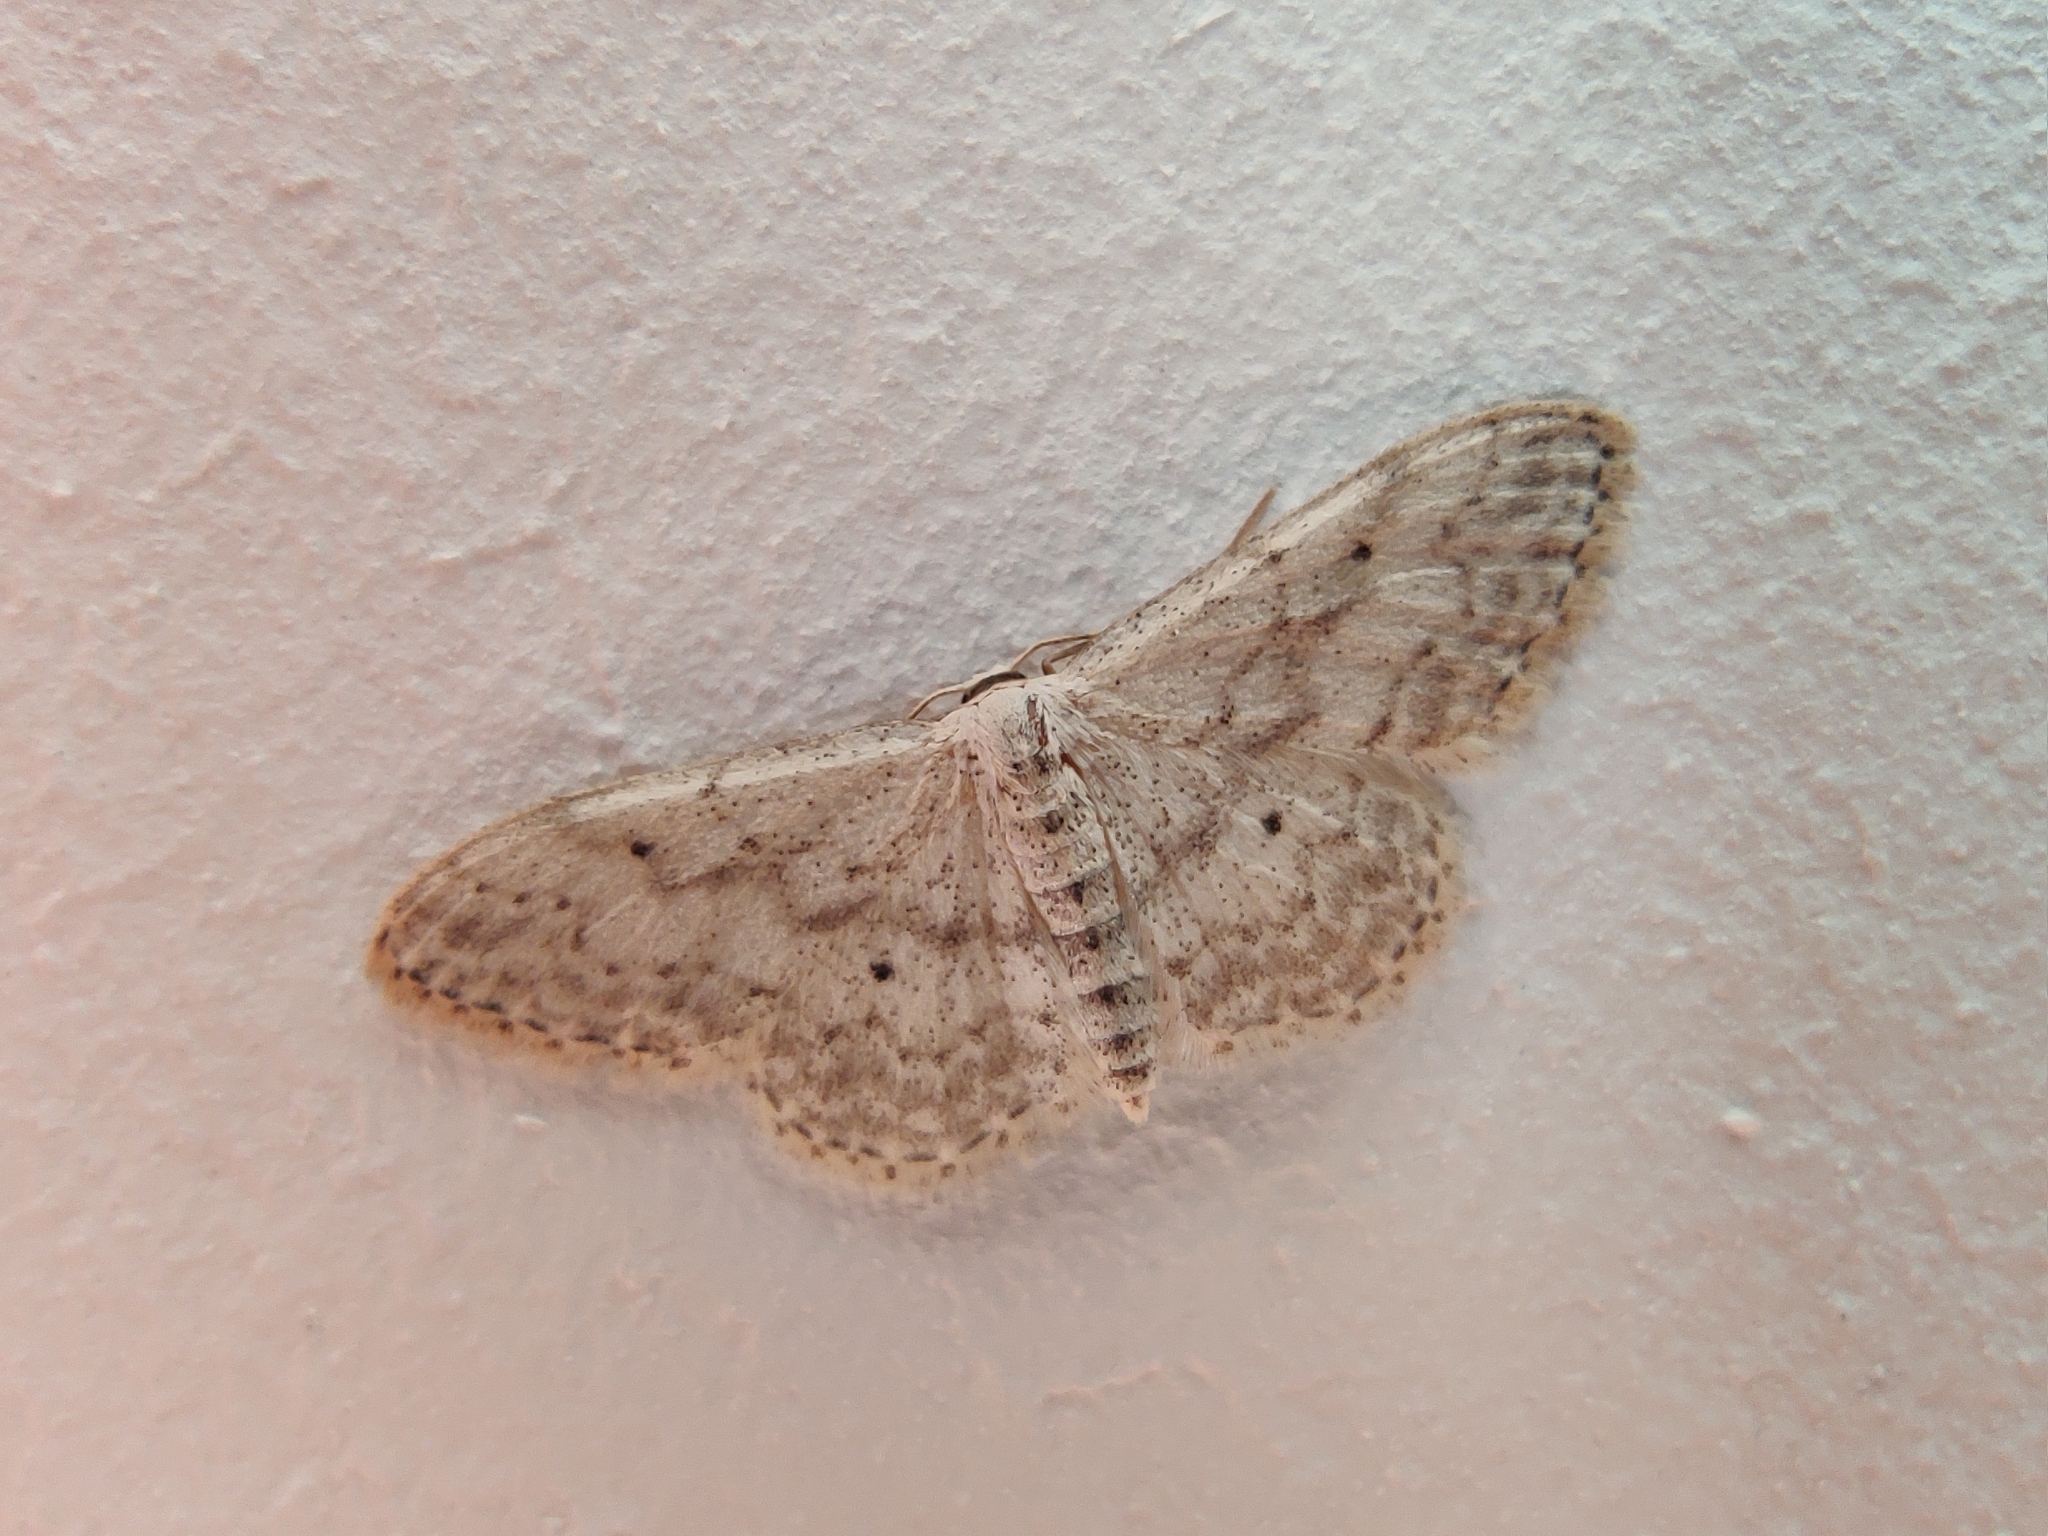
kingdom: Animalia
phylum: Arthropoda
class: Insecta
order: Lepidoptera
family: Geometridae
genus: Idaea
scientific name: Idaea seriata
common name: Small dusty wave
